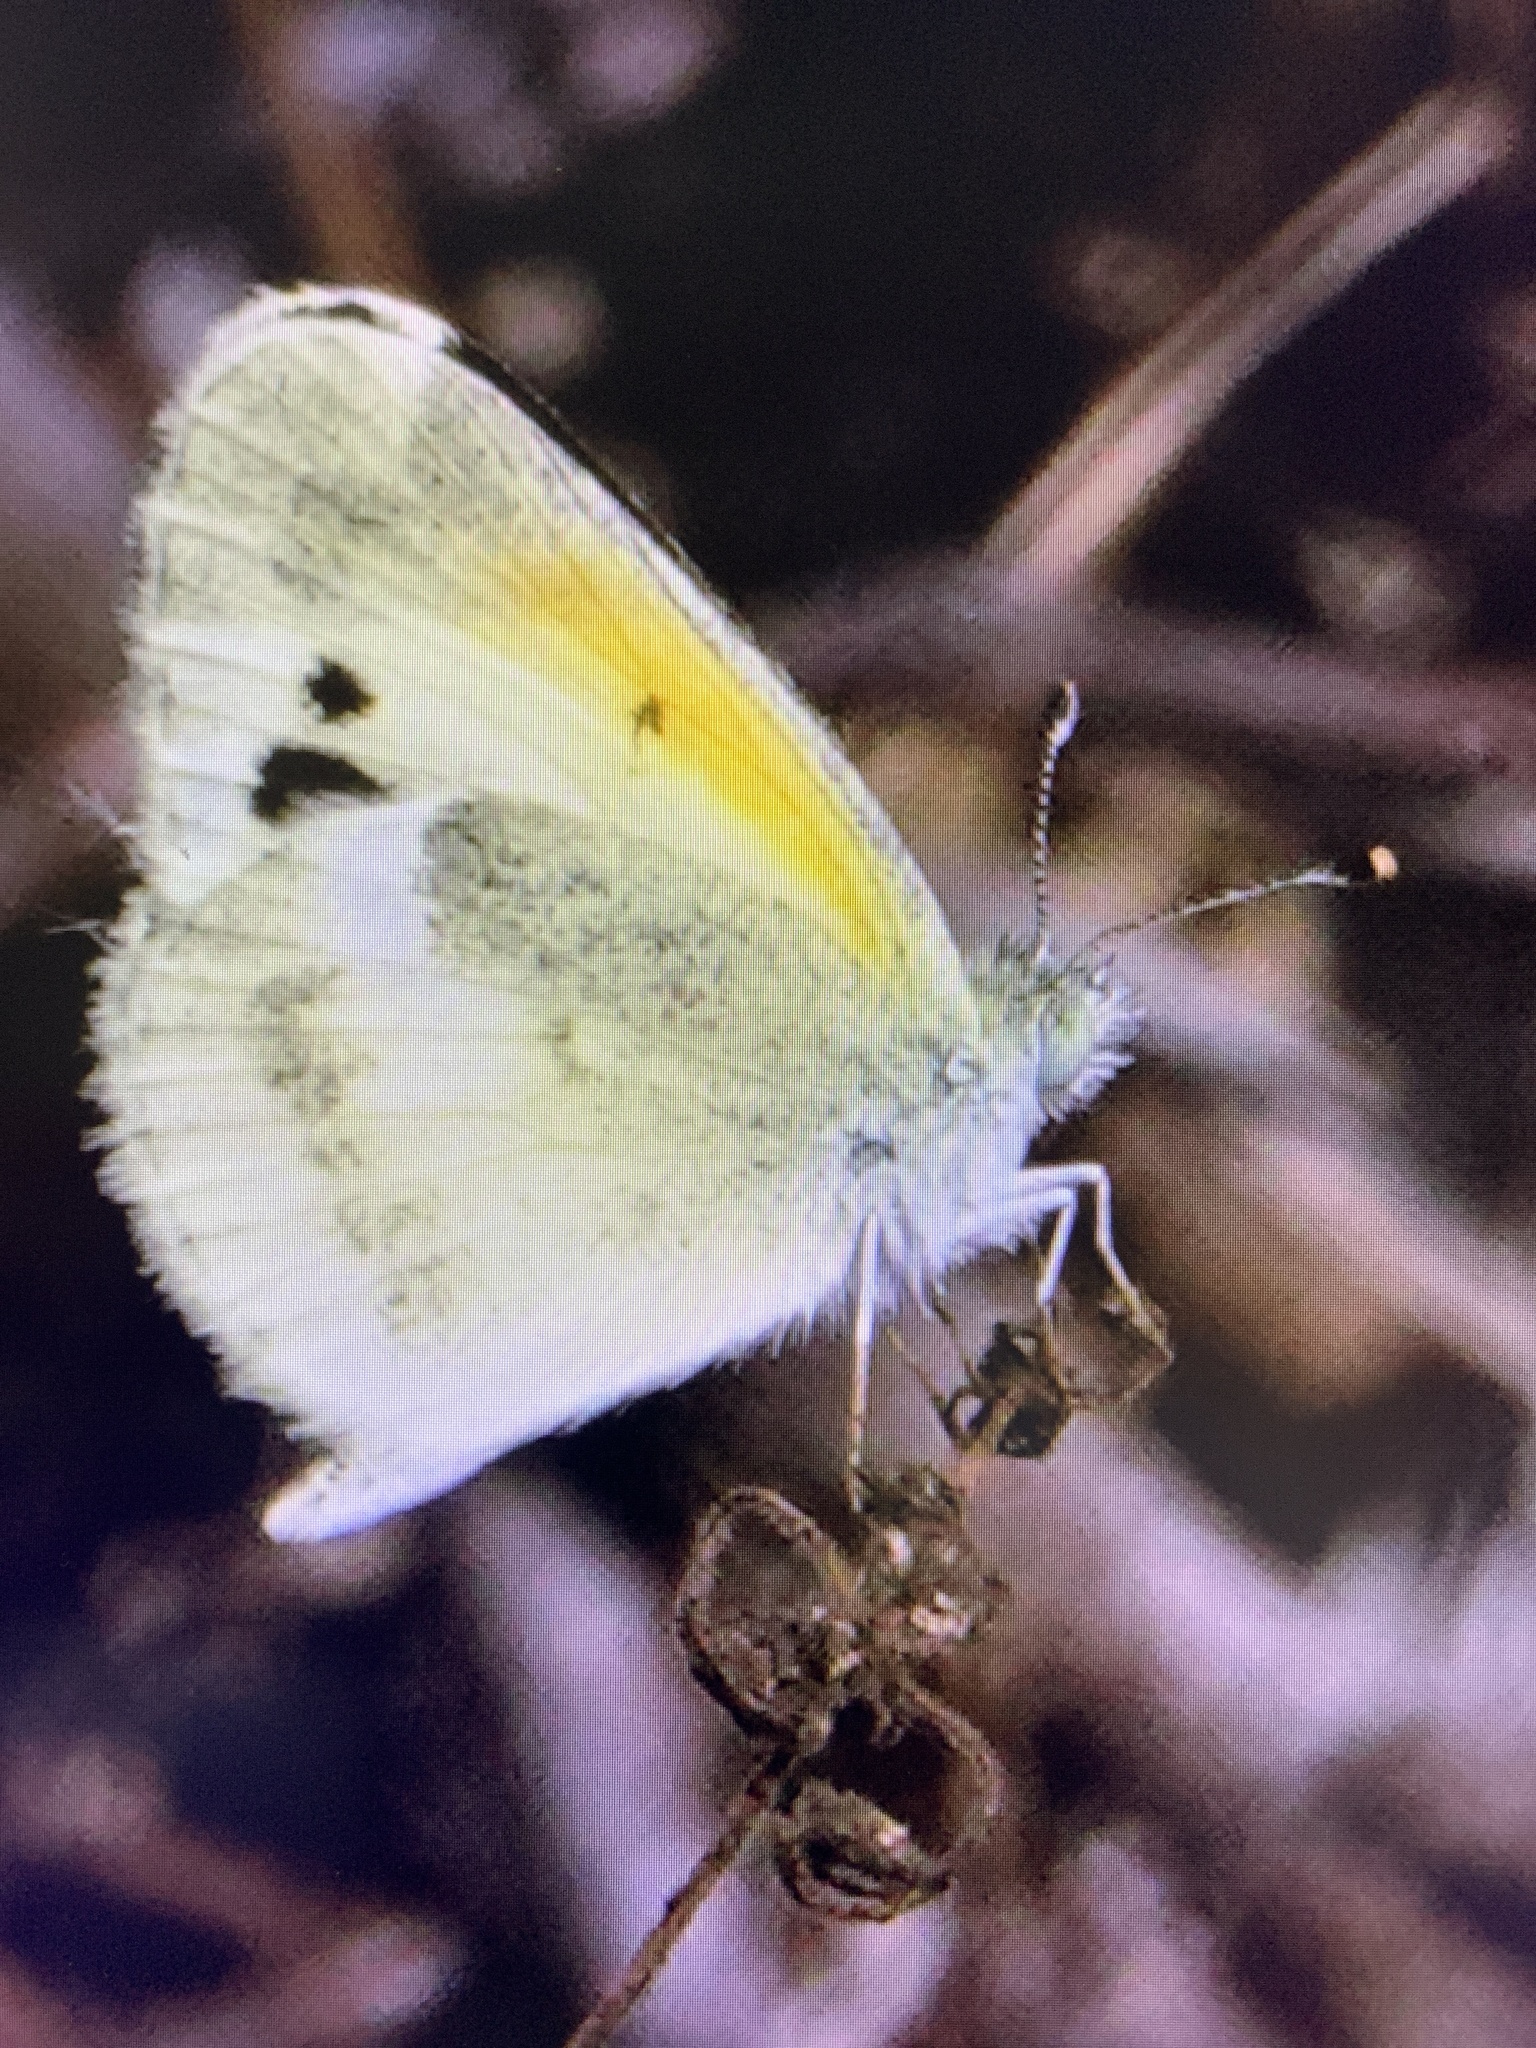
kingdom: Animalia
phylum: Arthropoda
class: Insecta
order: Lepidoptera
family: Pieridae
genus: Nathalis
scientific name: Nathalis iole
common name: Dainty sulphur
